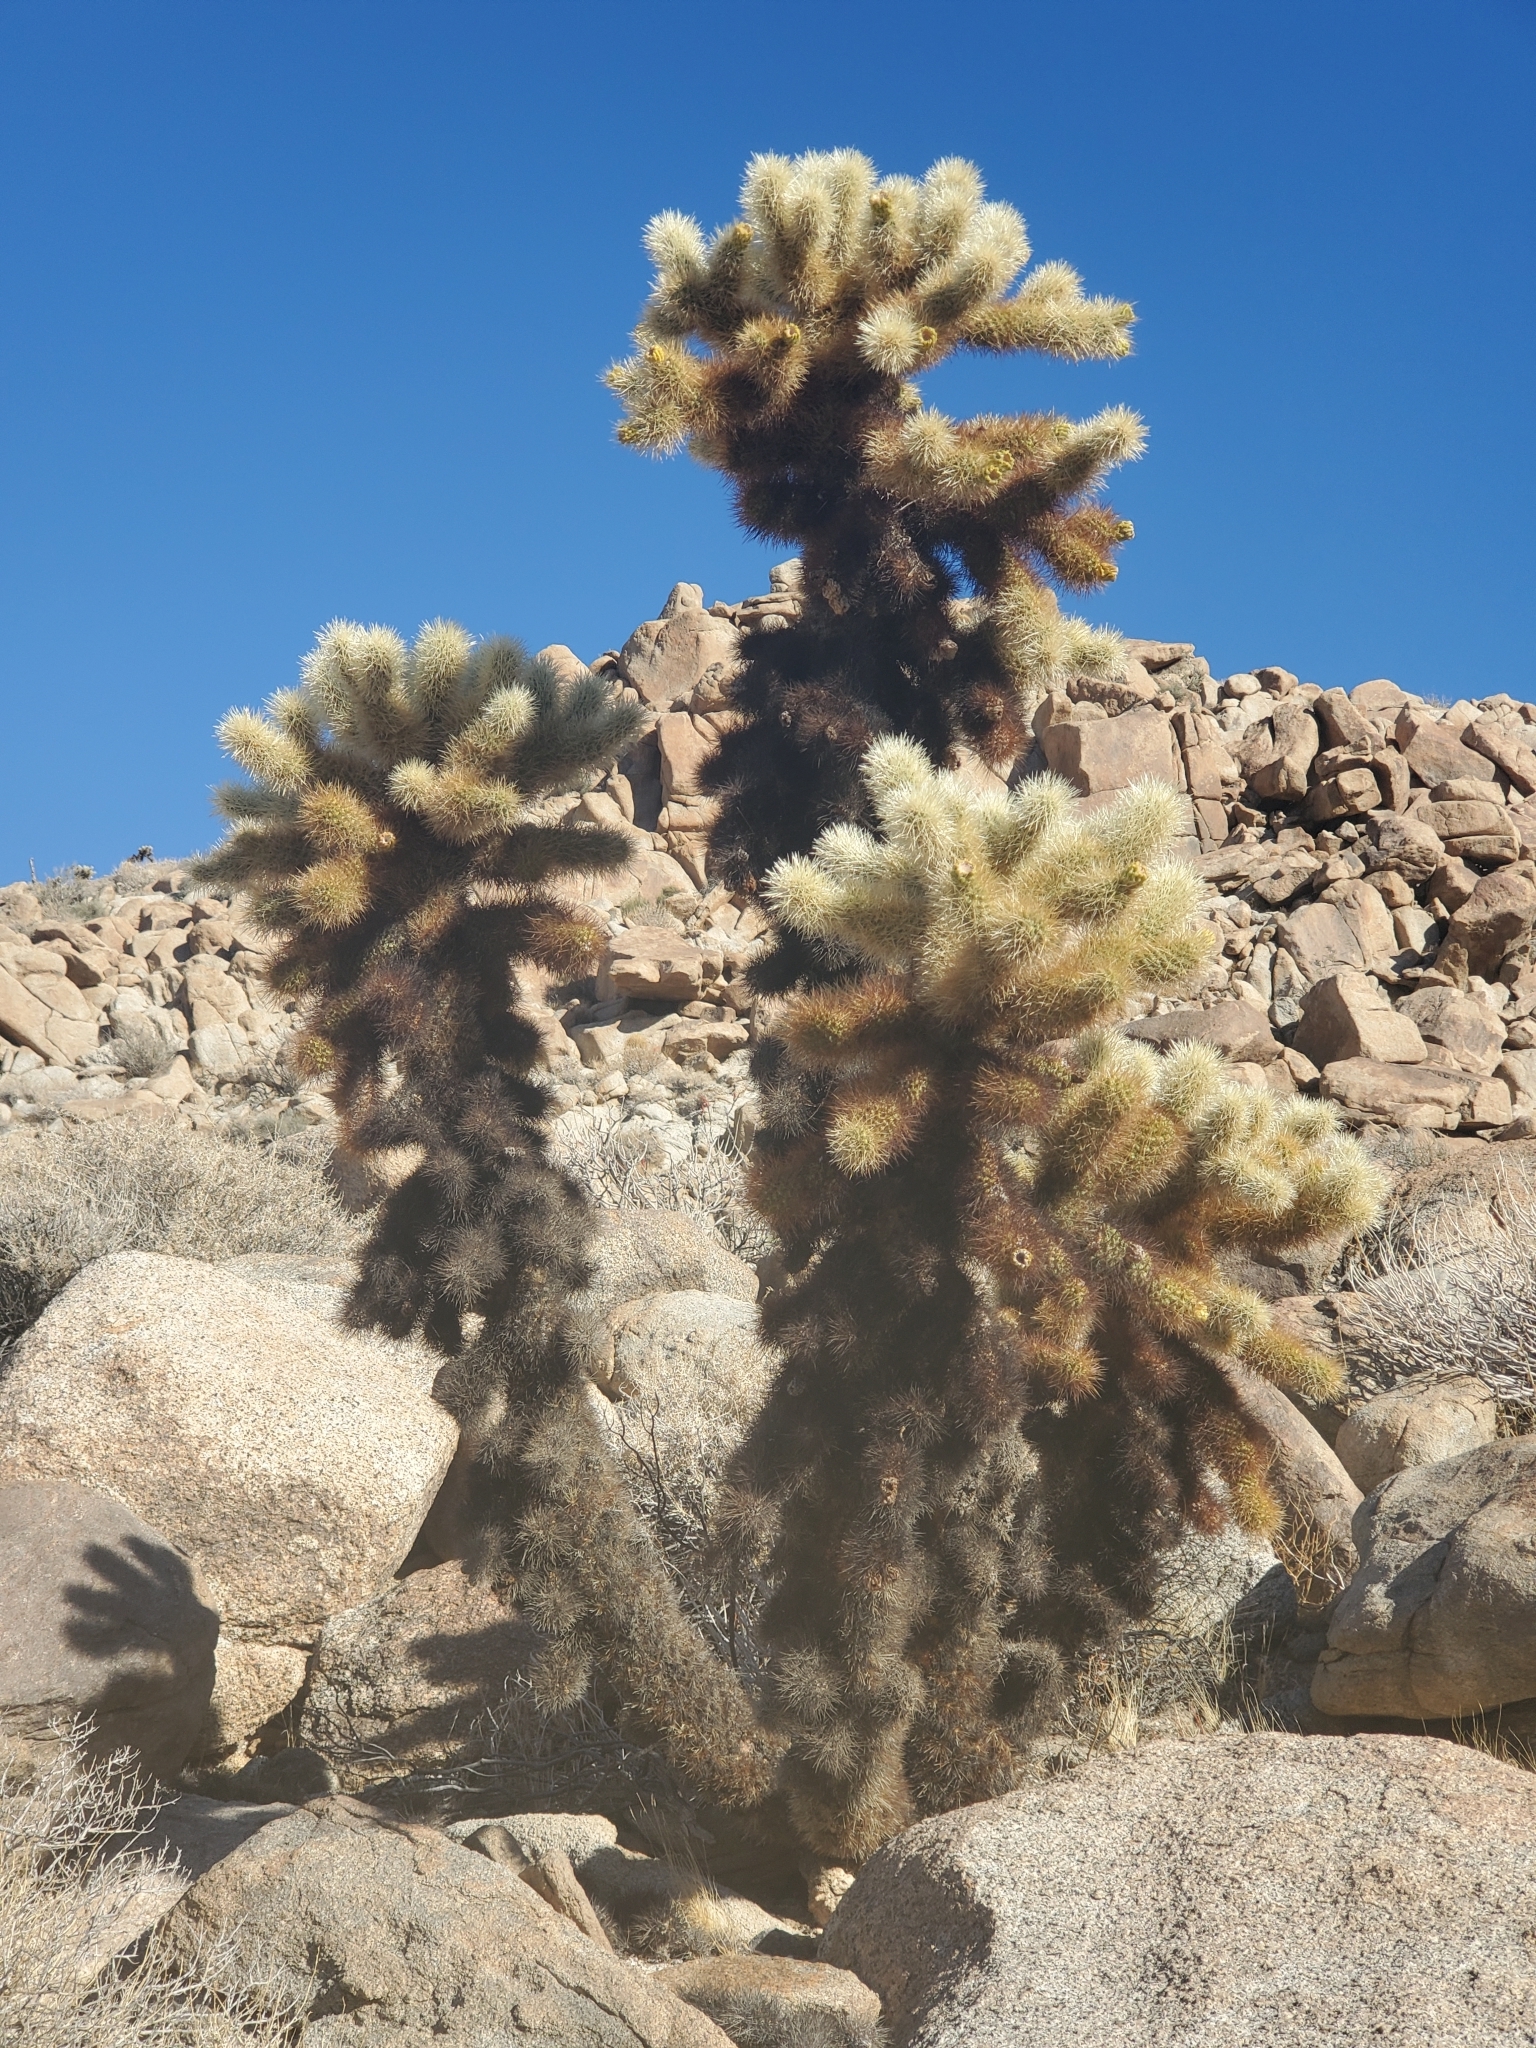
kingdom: Plantae
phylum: Tracheophyta
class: Magnoliopsida
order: Caryophyllales
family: Cactaceae
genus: Cylindropuntia
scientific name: Cylindropuntia fosbergii
